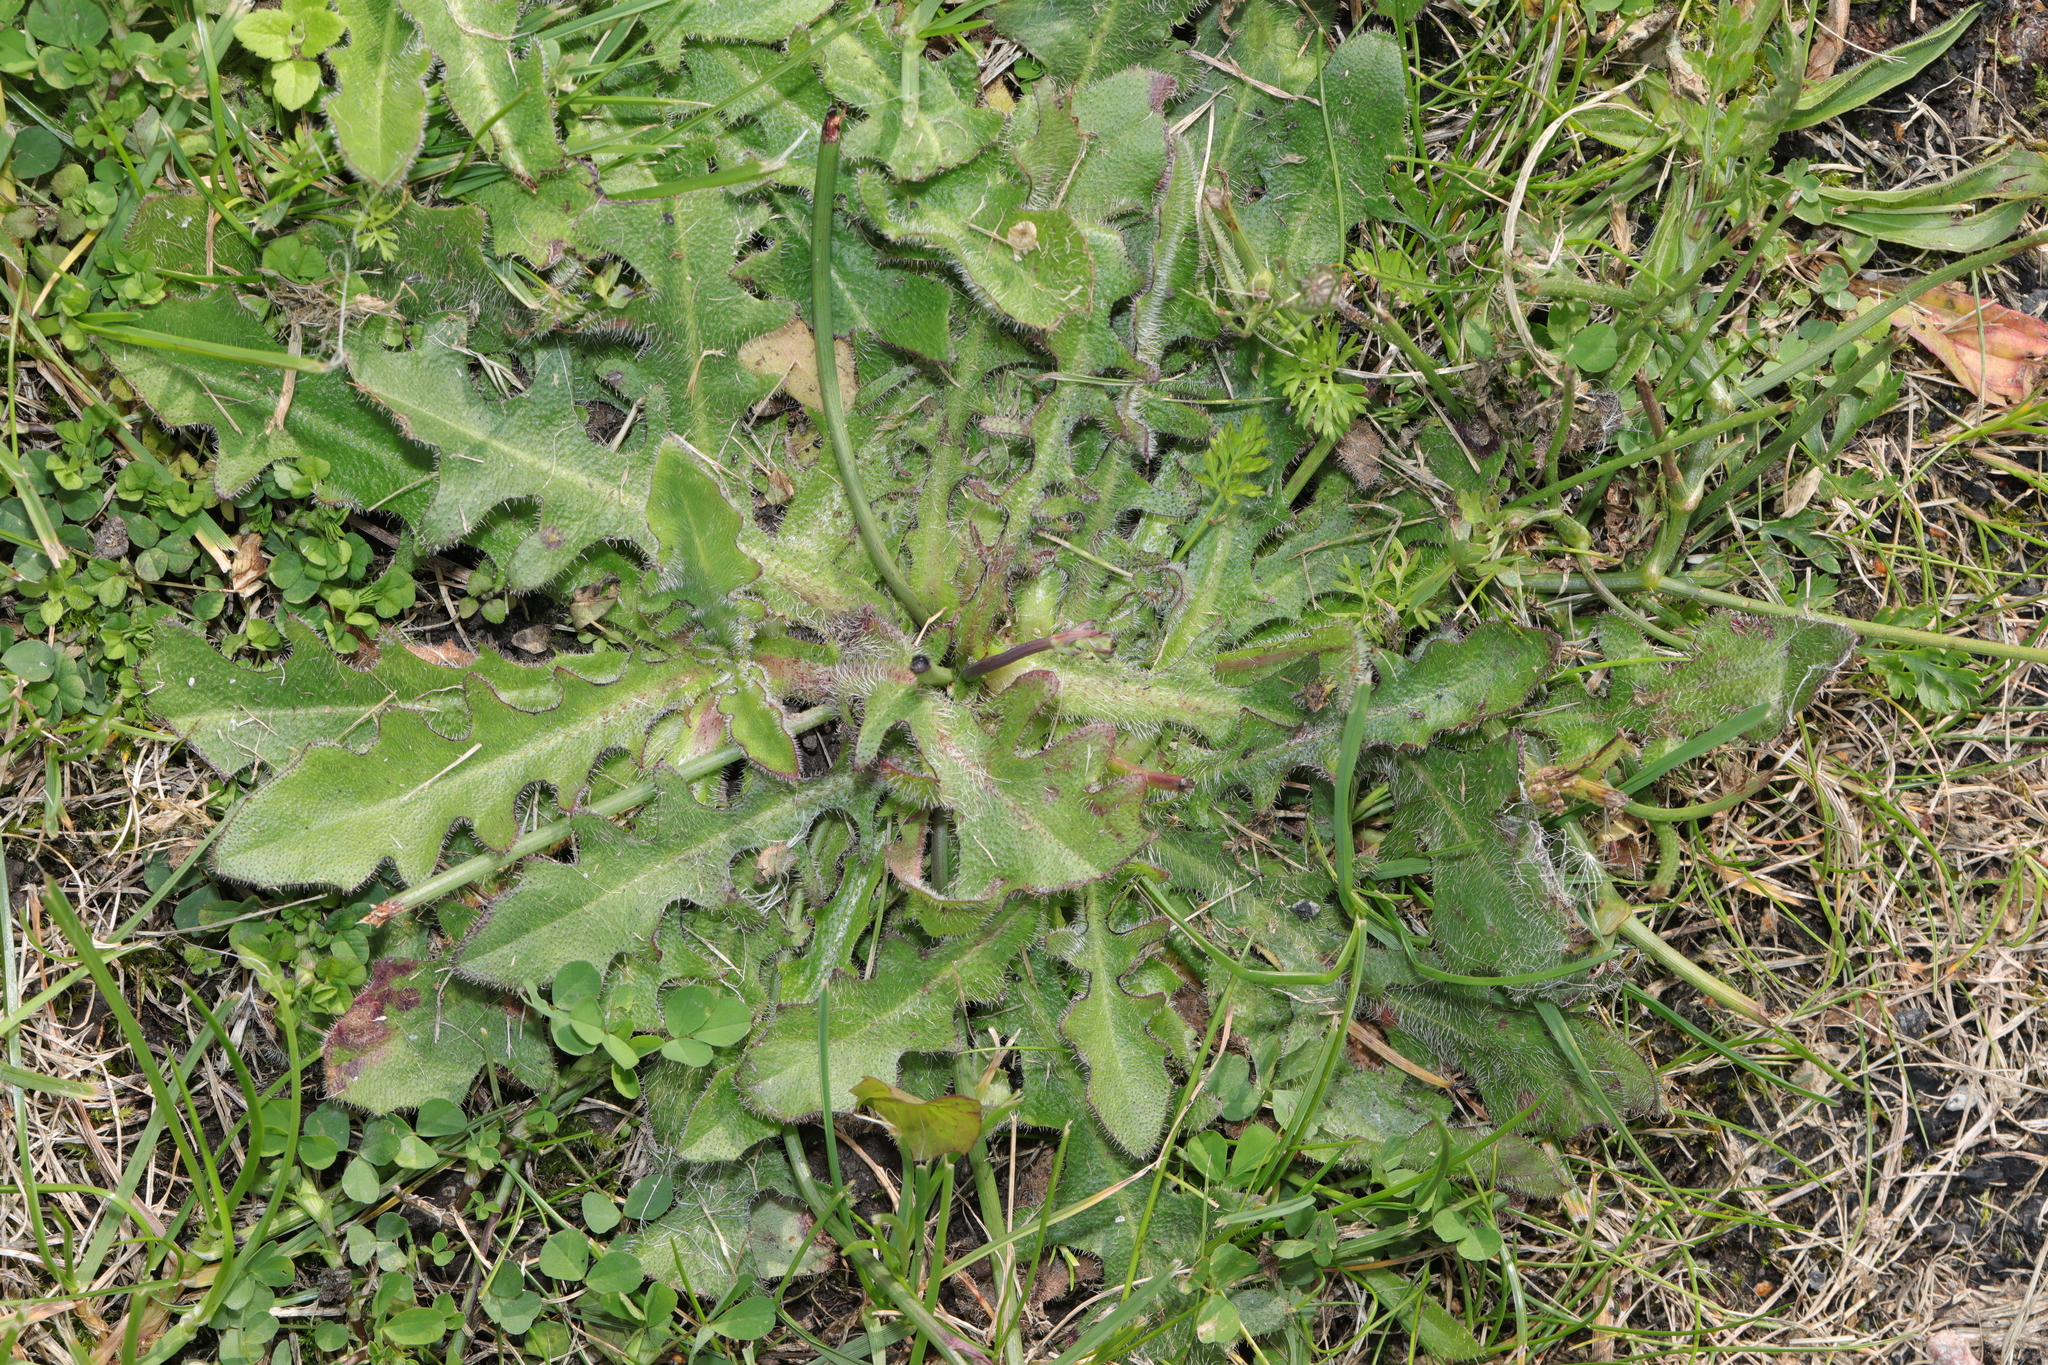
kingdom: Plantae
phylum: Tracheophyta
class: Magnoliopsida
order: Asterales
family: Asteraceae
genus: Hypochaeris
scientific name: Hypochaeris radicata
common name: Flatweed
